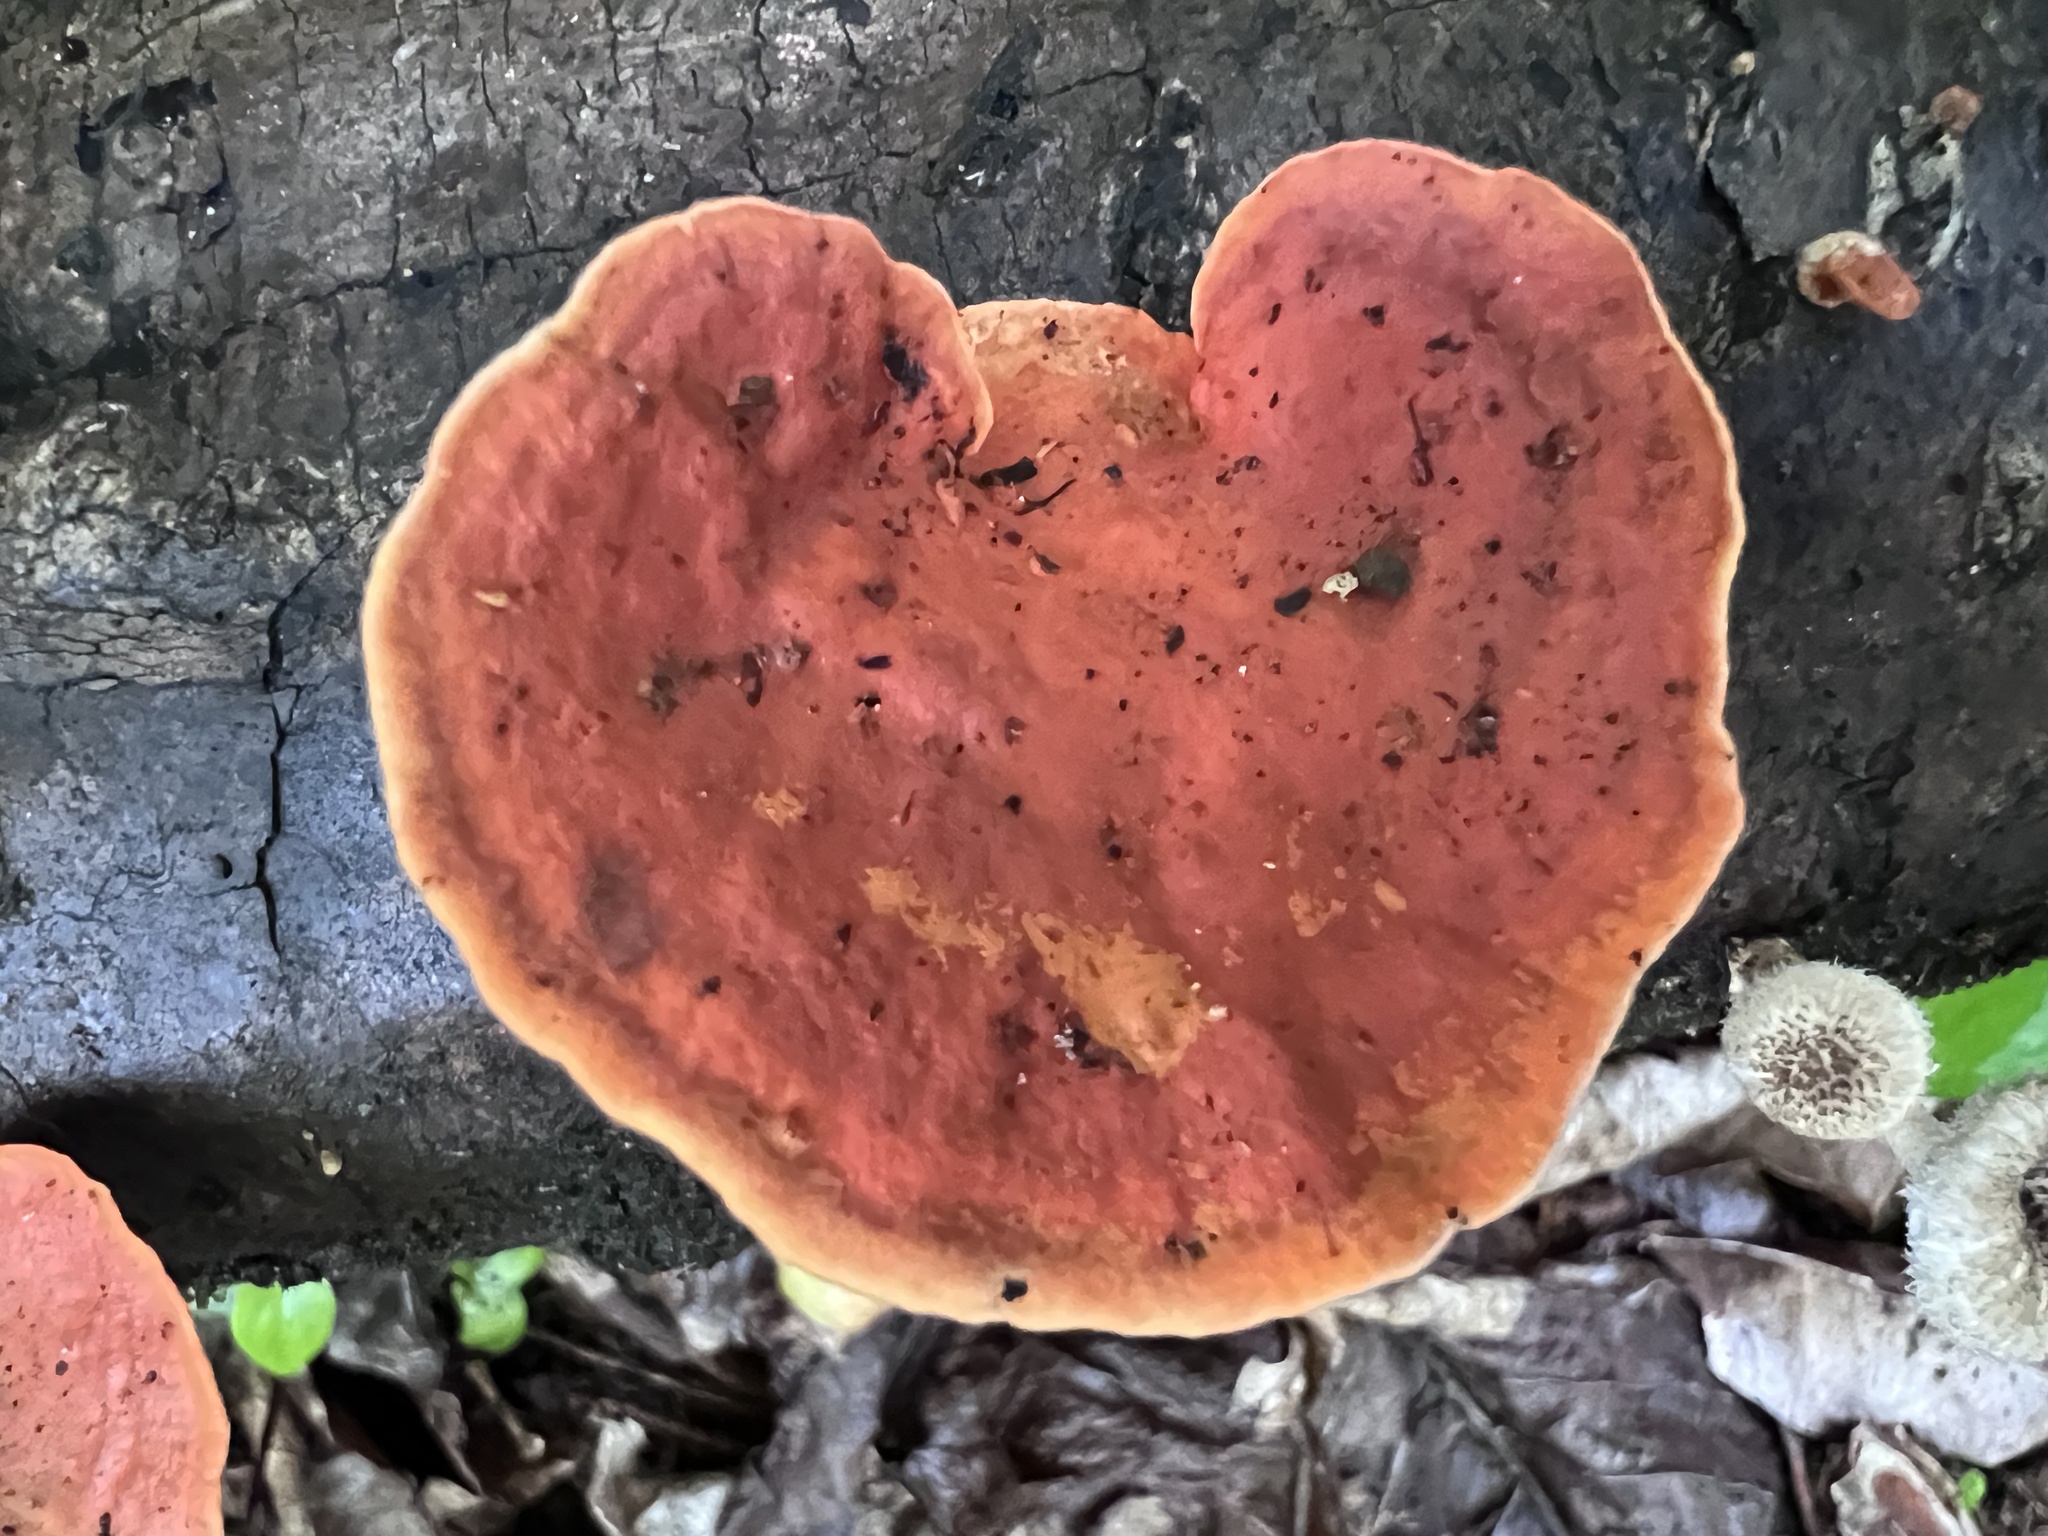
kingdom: Fungi
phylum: Basidiomycota
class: Agaricomycetes
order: Polyporales
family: Polyporaceae
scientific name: Polyporaceae
